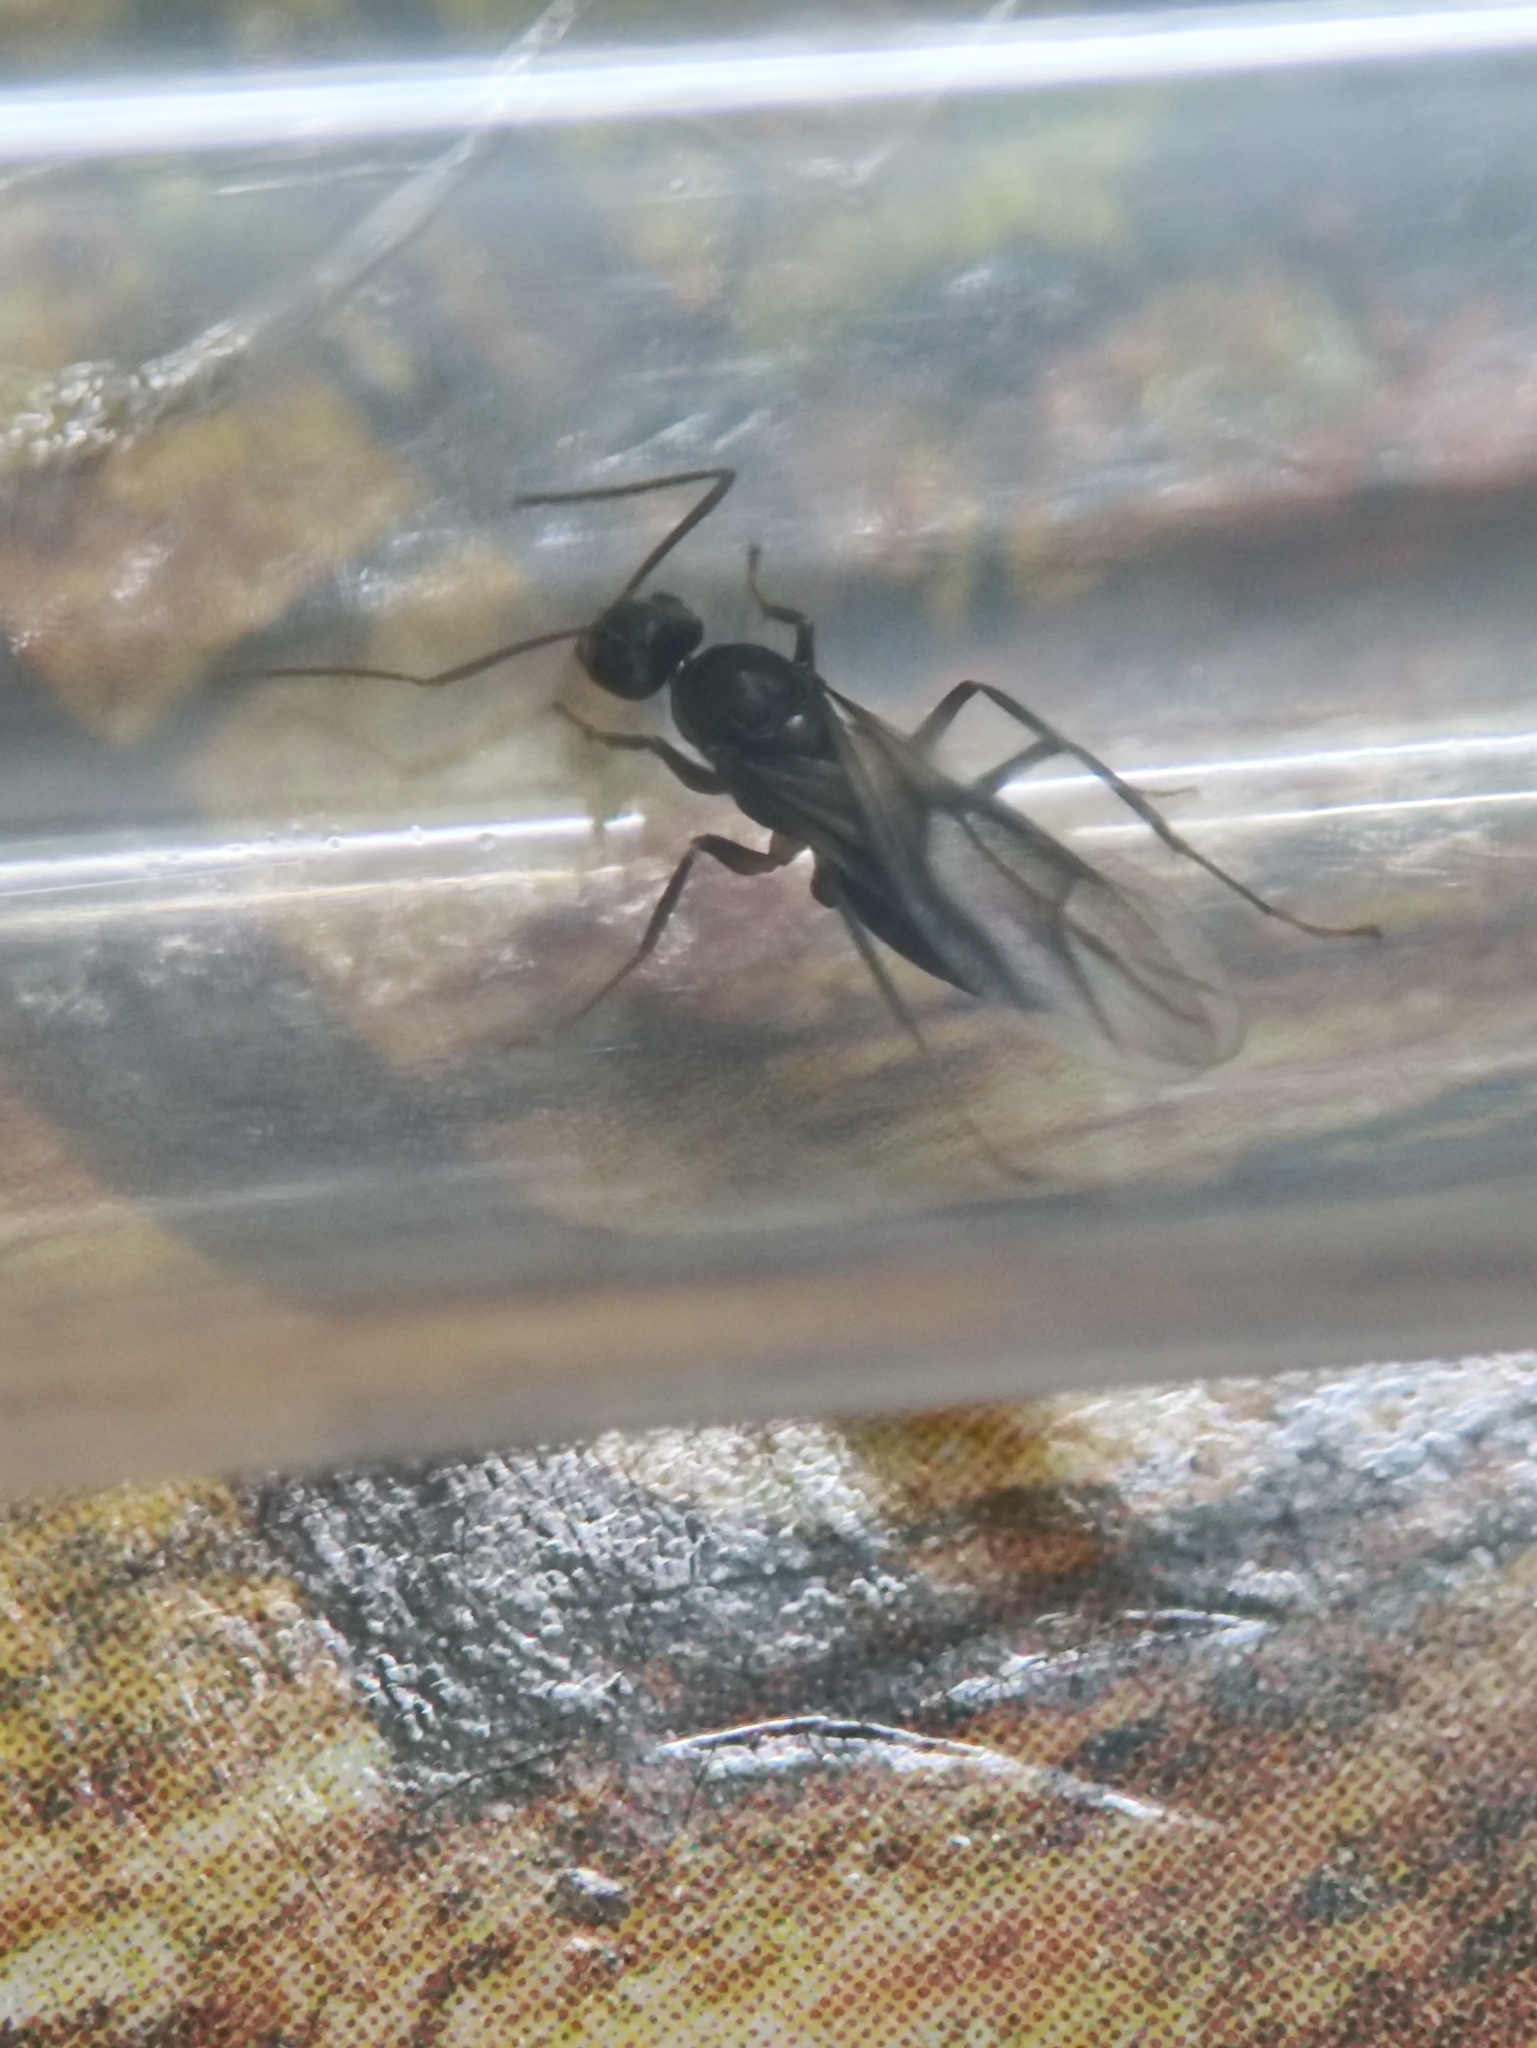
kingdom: Animalia
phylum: Arthropoda
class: Insecta
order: Hymenoptera
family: Formicidae
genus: Paratrechina
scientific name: Paratrechina longicornis
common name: Longhorned crazy ant
